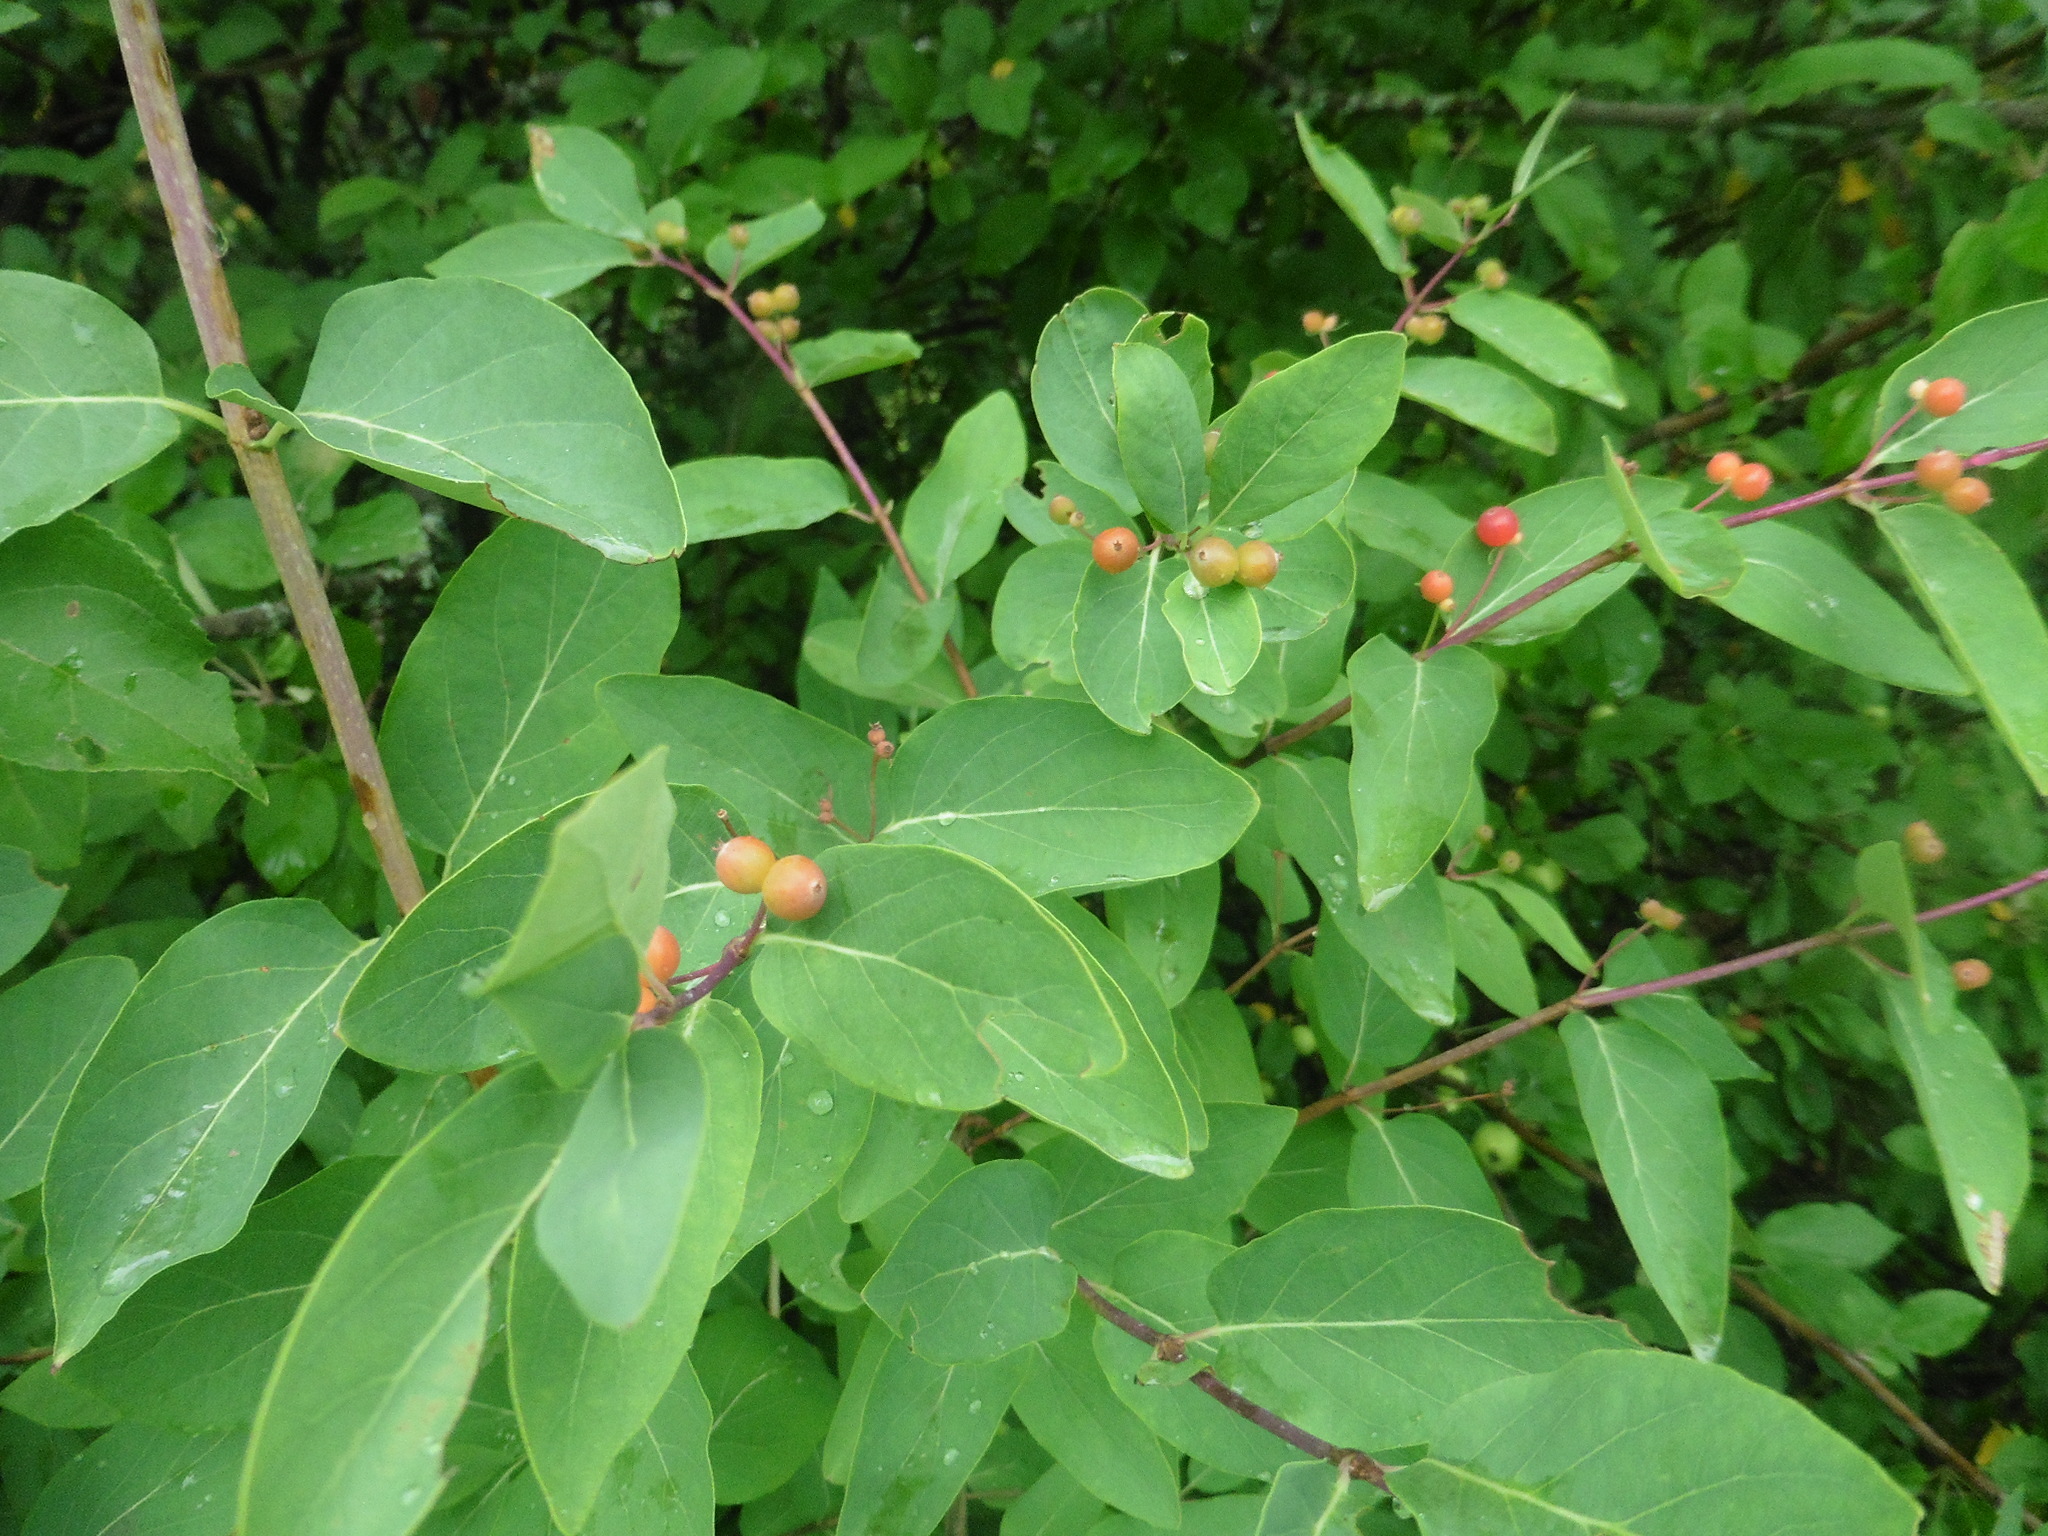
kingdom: Plantae
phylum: Tracheophyta
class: Magnoliopsida
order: Dipsacales
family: Caprifoliaceae
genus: Lonicera
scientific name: Lonicera tatarica
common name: Tatarian honeysuckle
